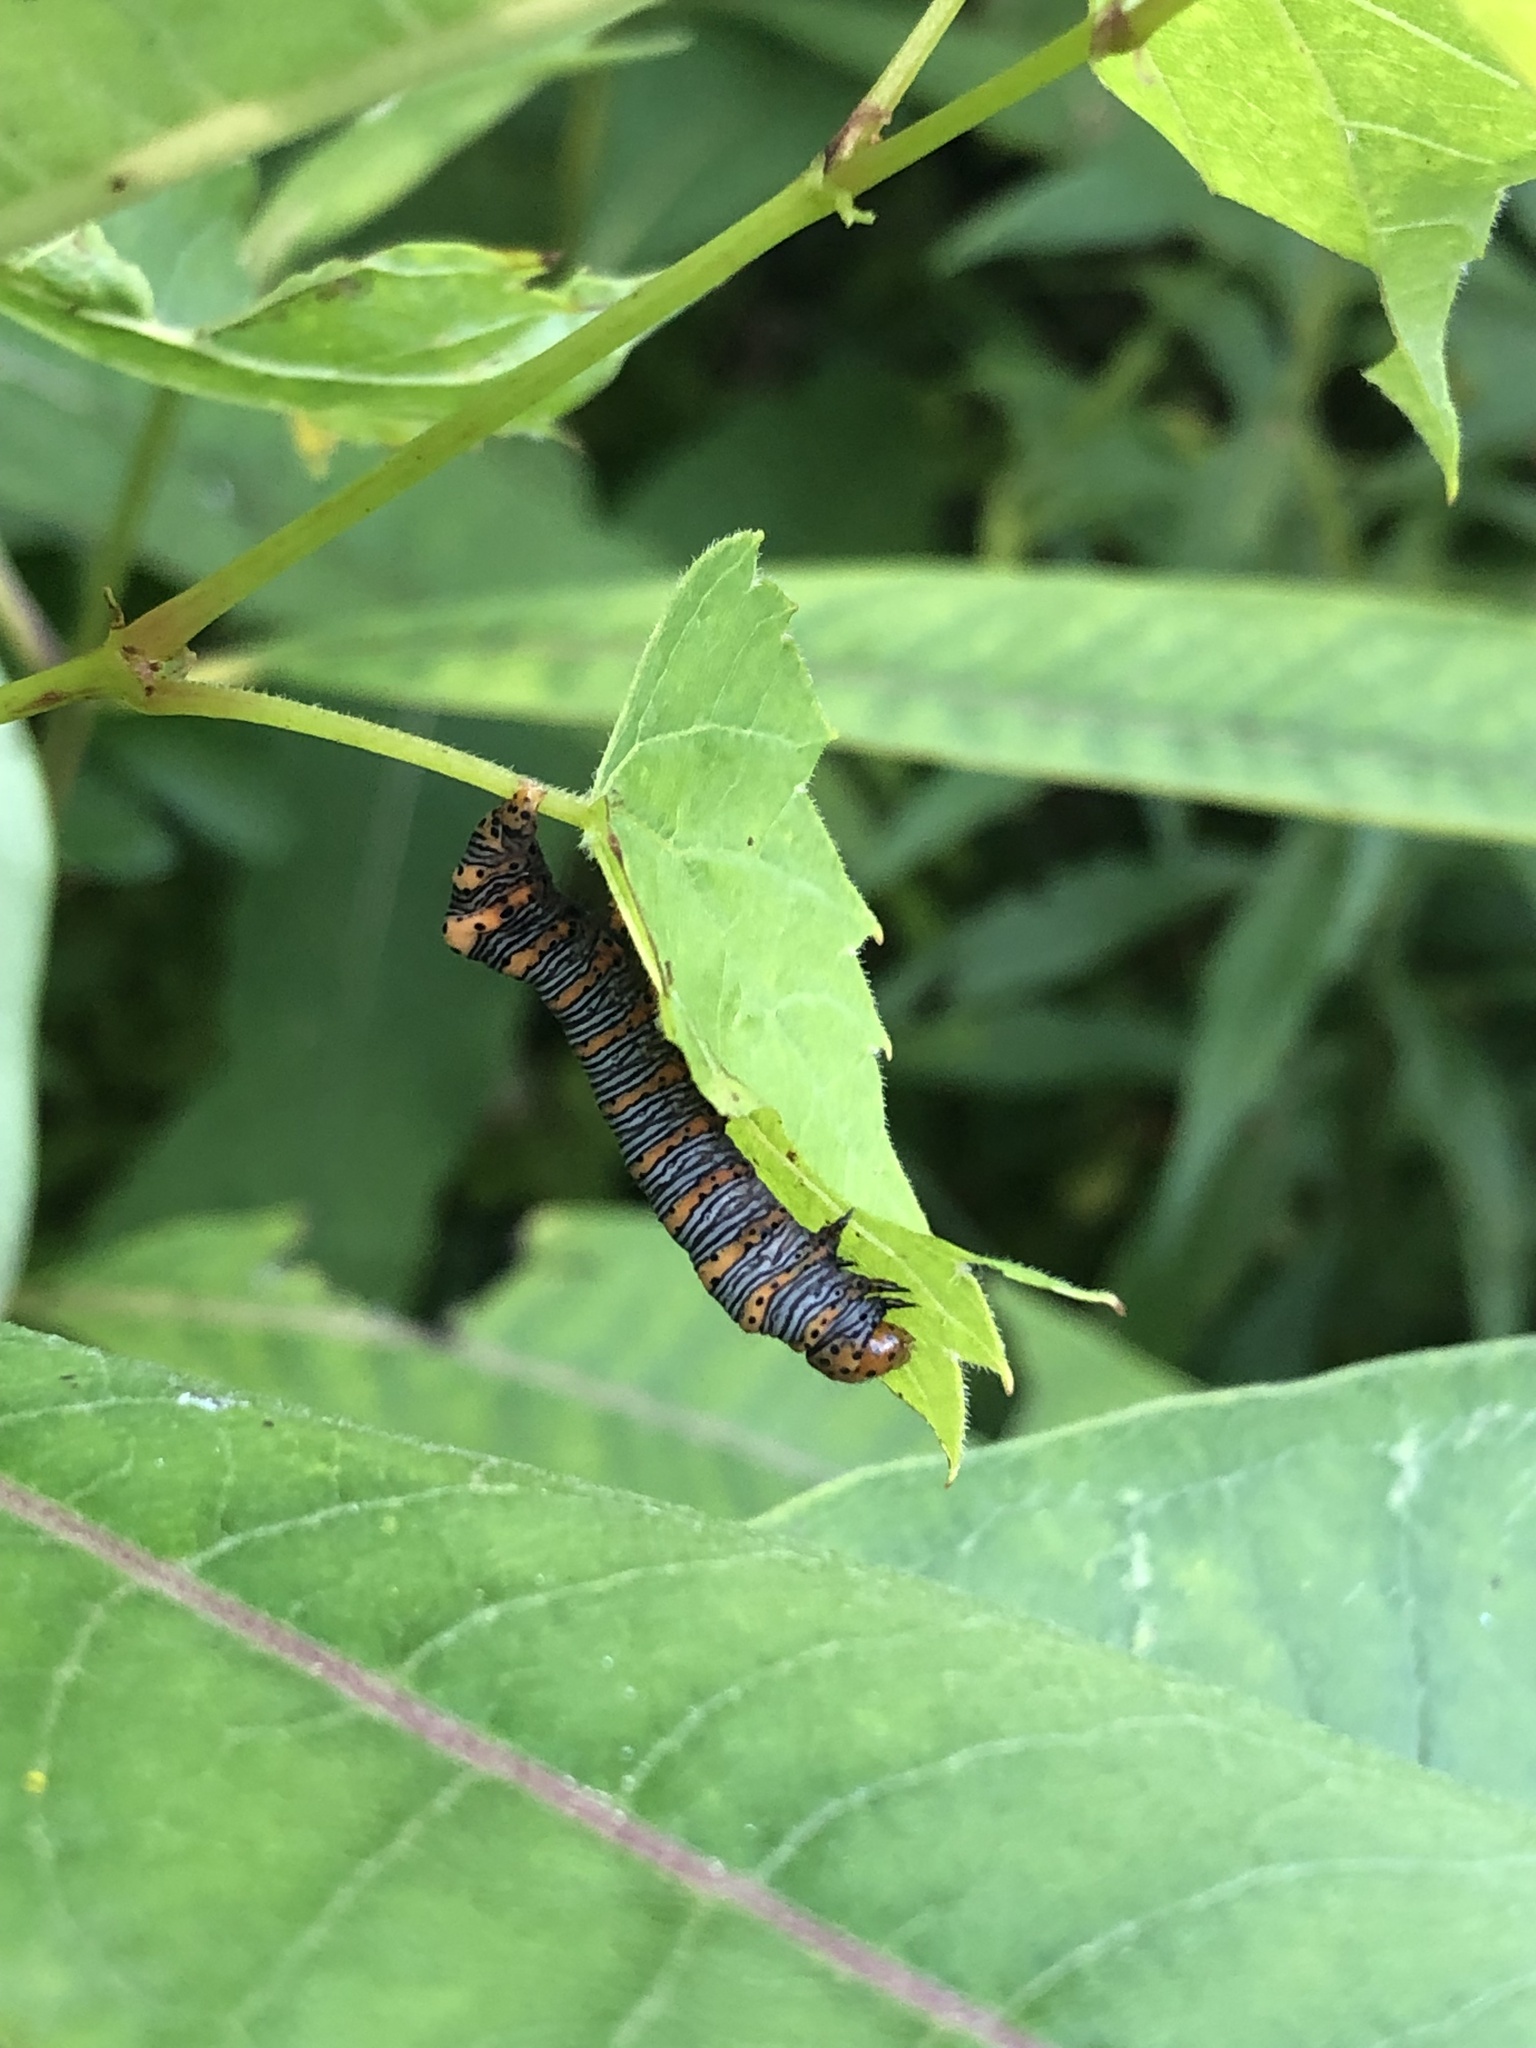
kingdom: Animalia
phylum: Arthropoda
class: Insecta
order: Lepidoptera
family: Noctuidae
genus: Eudryas
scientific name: Eudryas grata
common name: Beautiful wood-nymph
